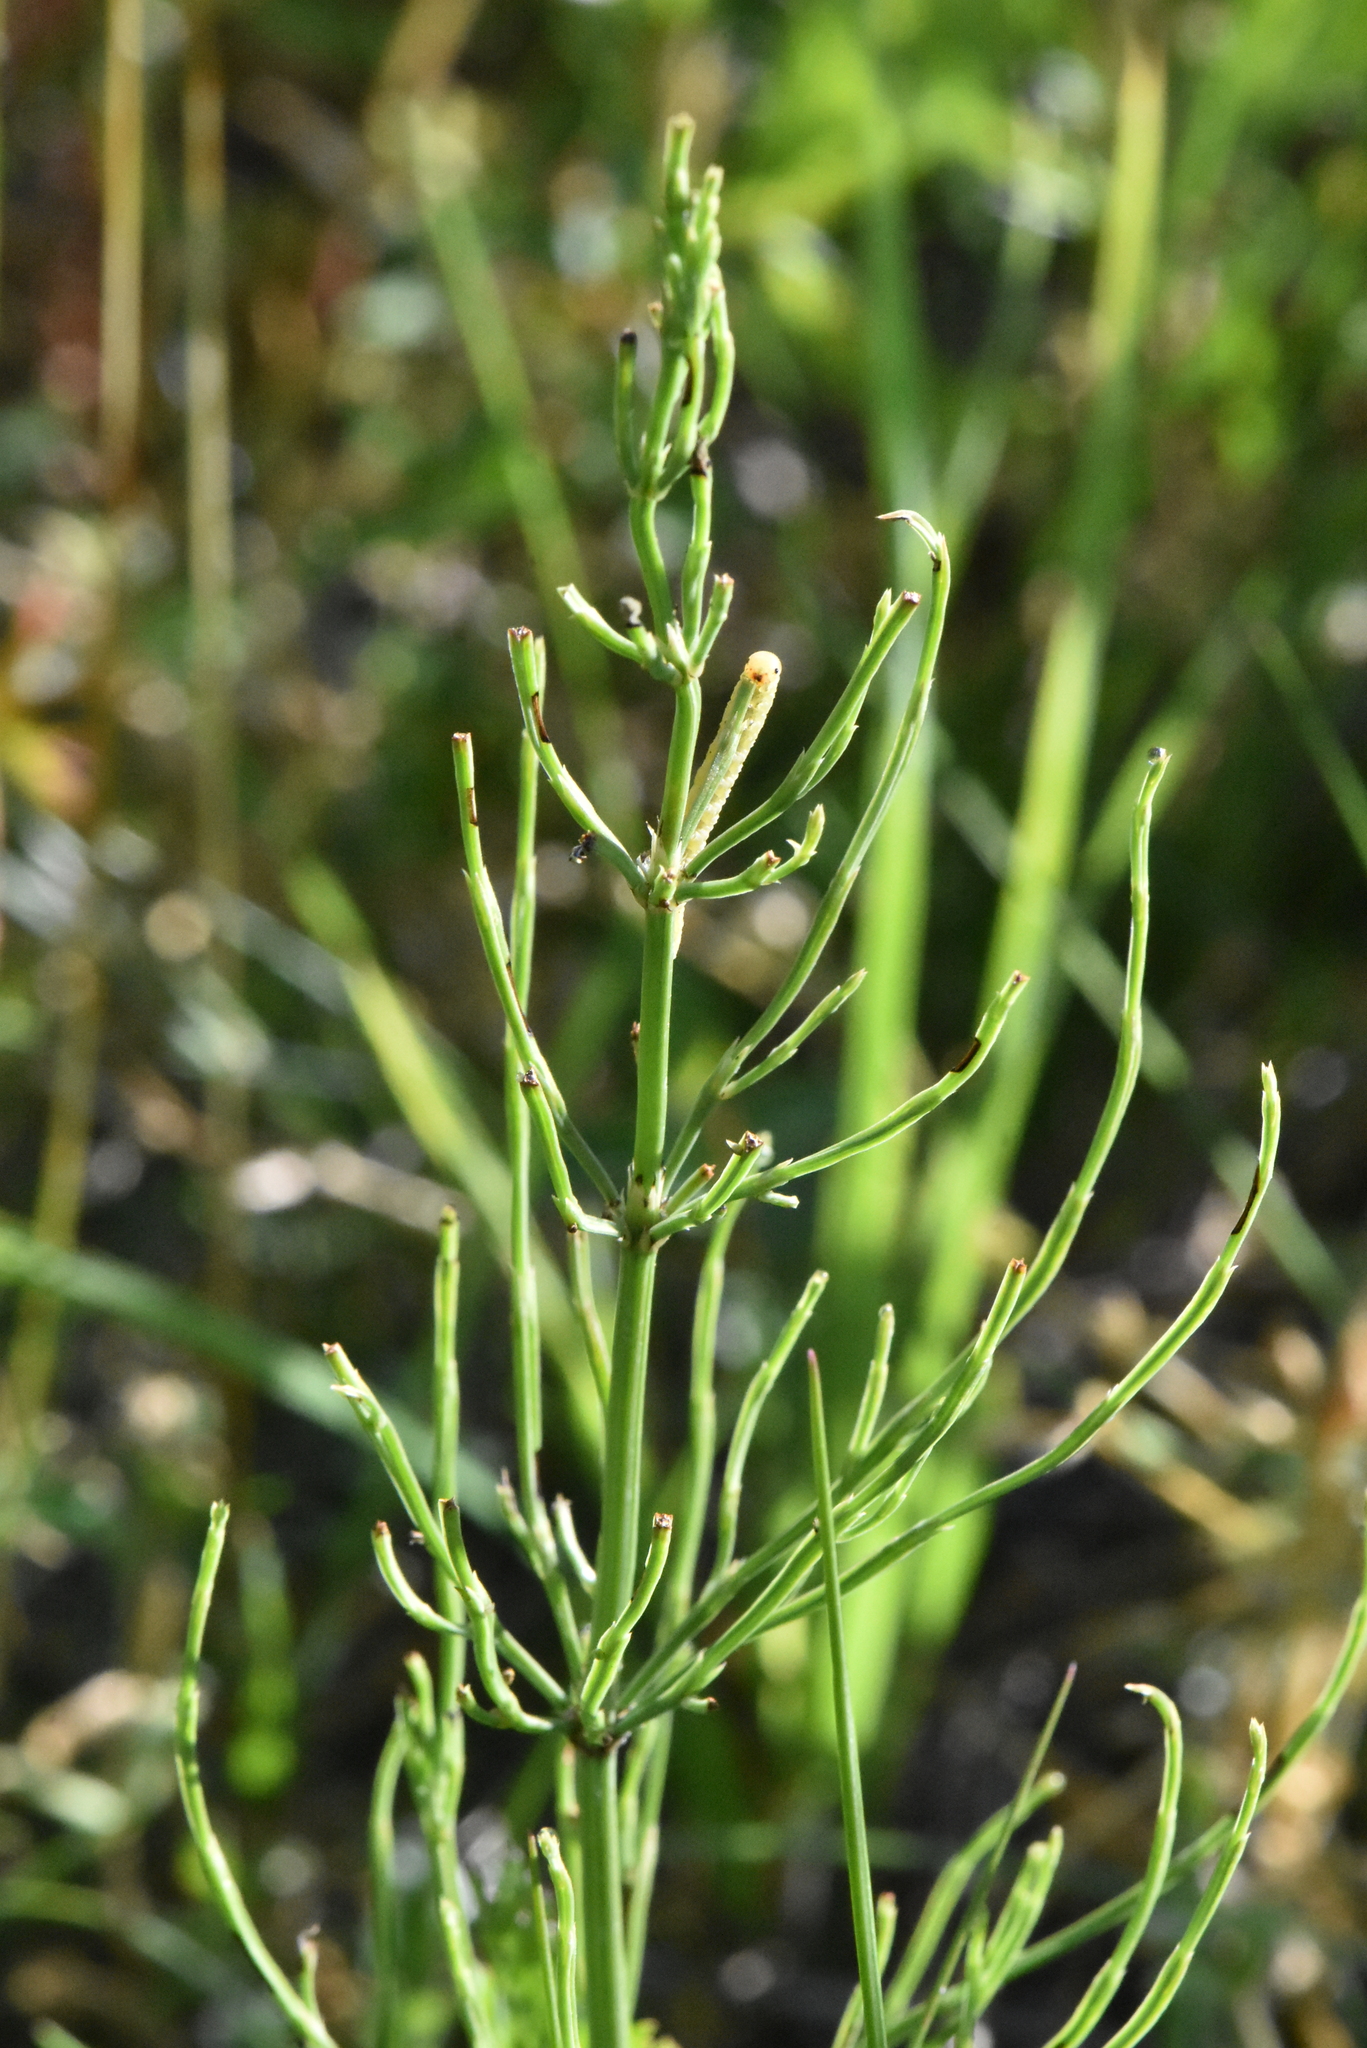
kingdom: Plantae
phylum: Tracheophyta
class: Polypodiopsida
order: Equisetales
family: Equisetaceae
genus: Equisetum
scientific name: Equisetum arvense
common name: Field horsetail
